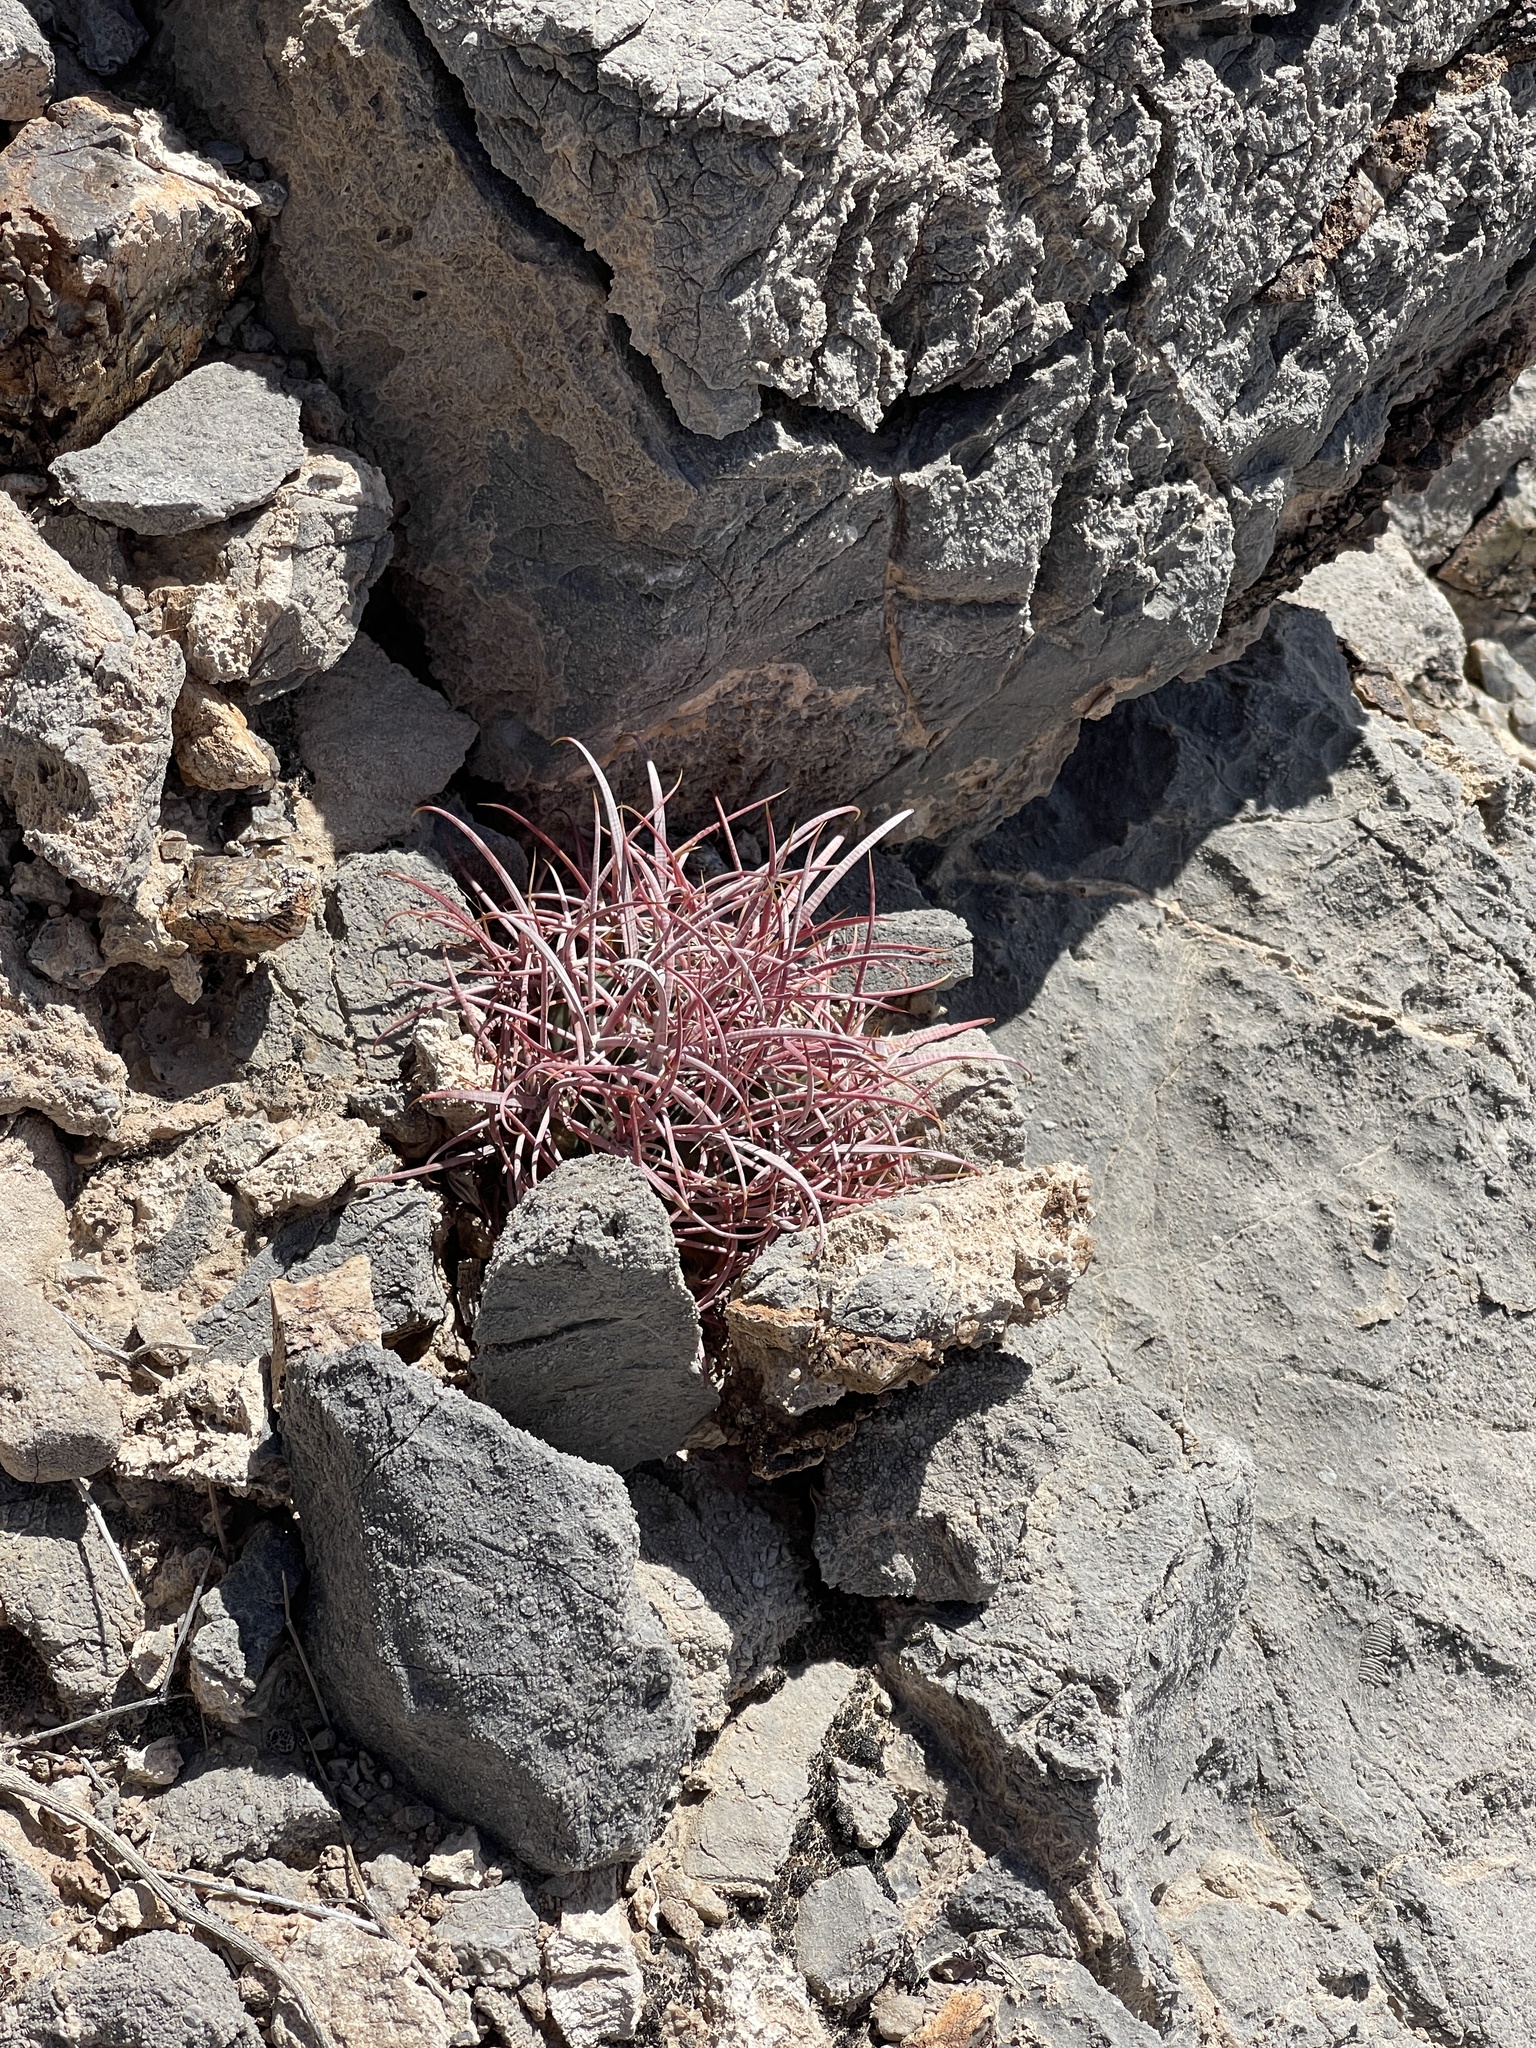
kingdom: Plantae
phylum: Tracheophyta
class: Magnoliopsida
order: Caryophyllales
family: Cactaceae
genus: Ferocactus
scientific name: Ferocactus cylindraceus
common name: California barrel cactus
